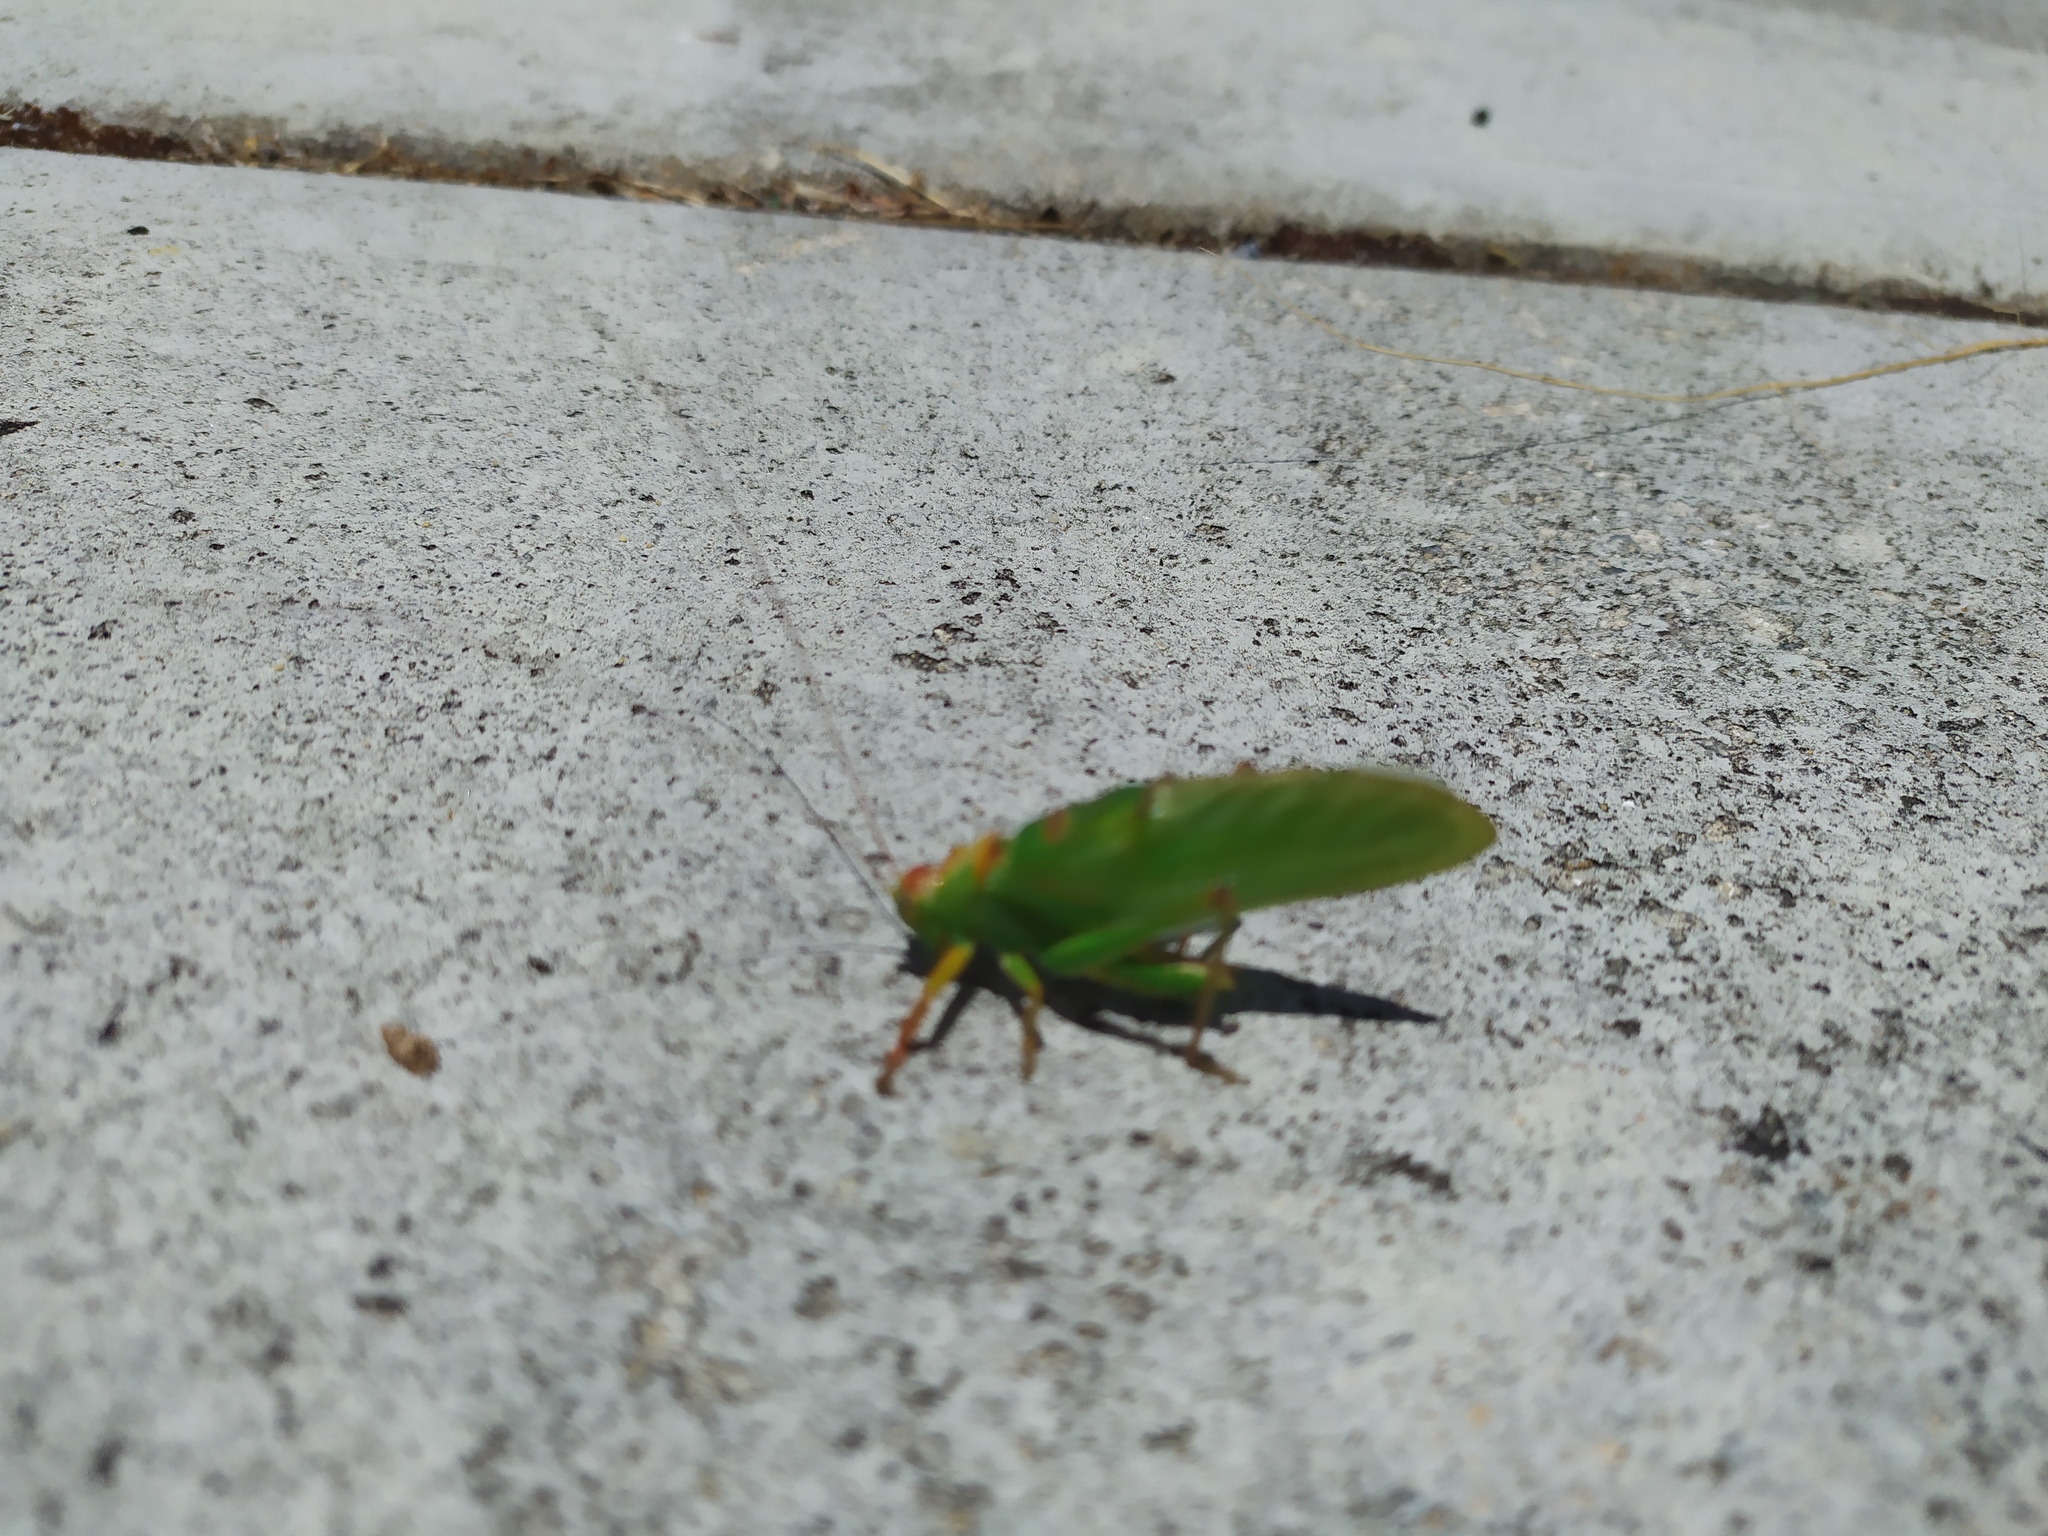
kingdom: Animalia
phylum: Arthropoda
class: Insecta
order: Orthoptera
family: Tettigoniidae
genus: Tympanophora
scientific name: Tympanophora andreae
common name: Andrea's balloon-winged katydid
